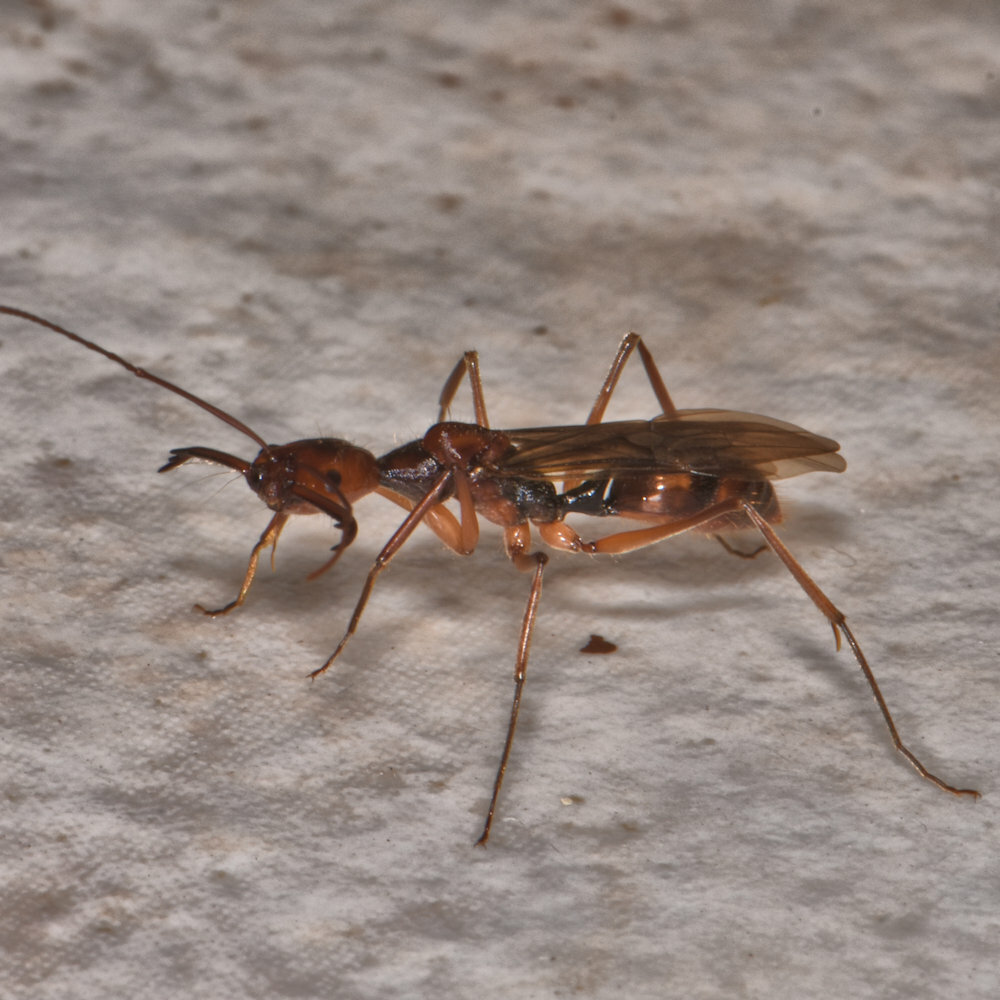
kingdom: Animalia
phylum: Arthropoda
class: Insecta
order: Hymenoptera
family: Formicidae
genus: Odontomachus
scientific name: Odontomachus hastatus
